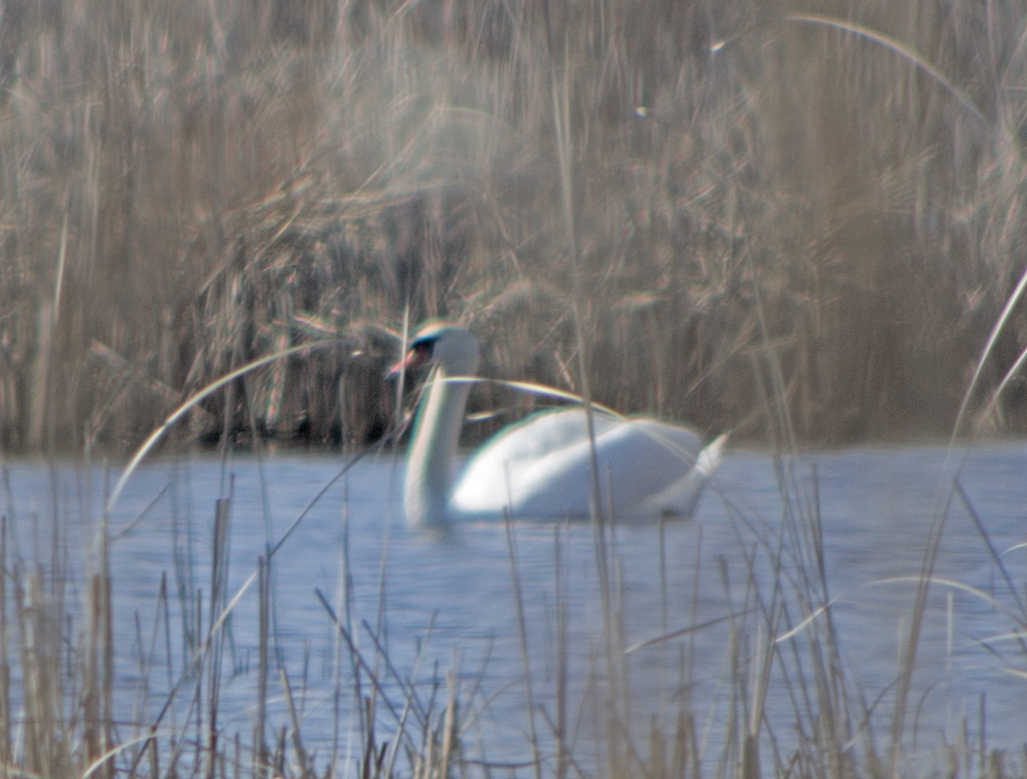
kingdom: Animalia
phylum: Chordata
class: Aves
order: Anseriformes
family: Anatidae
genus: Cygnus
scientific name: Cygnus olor
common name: Mute swan
